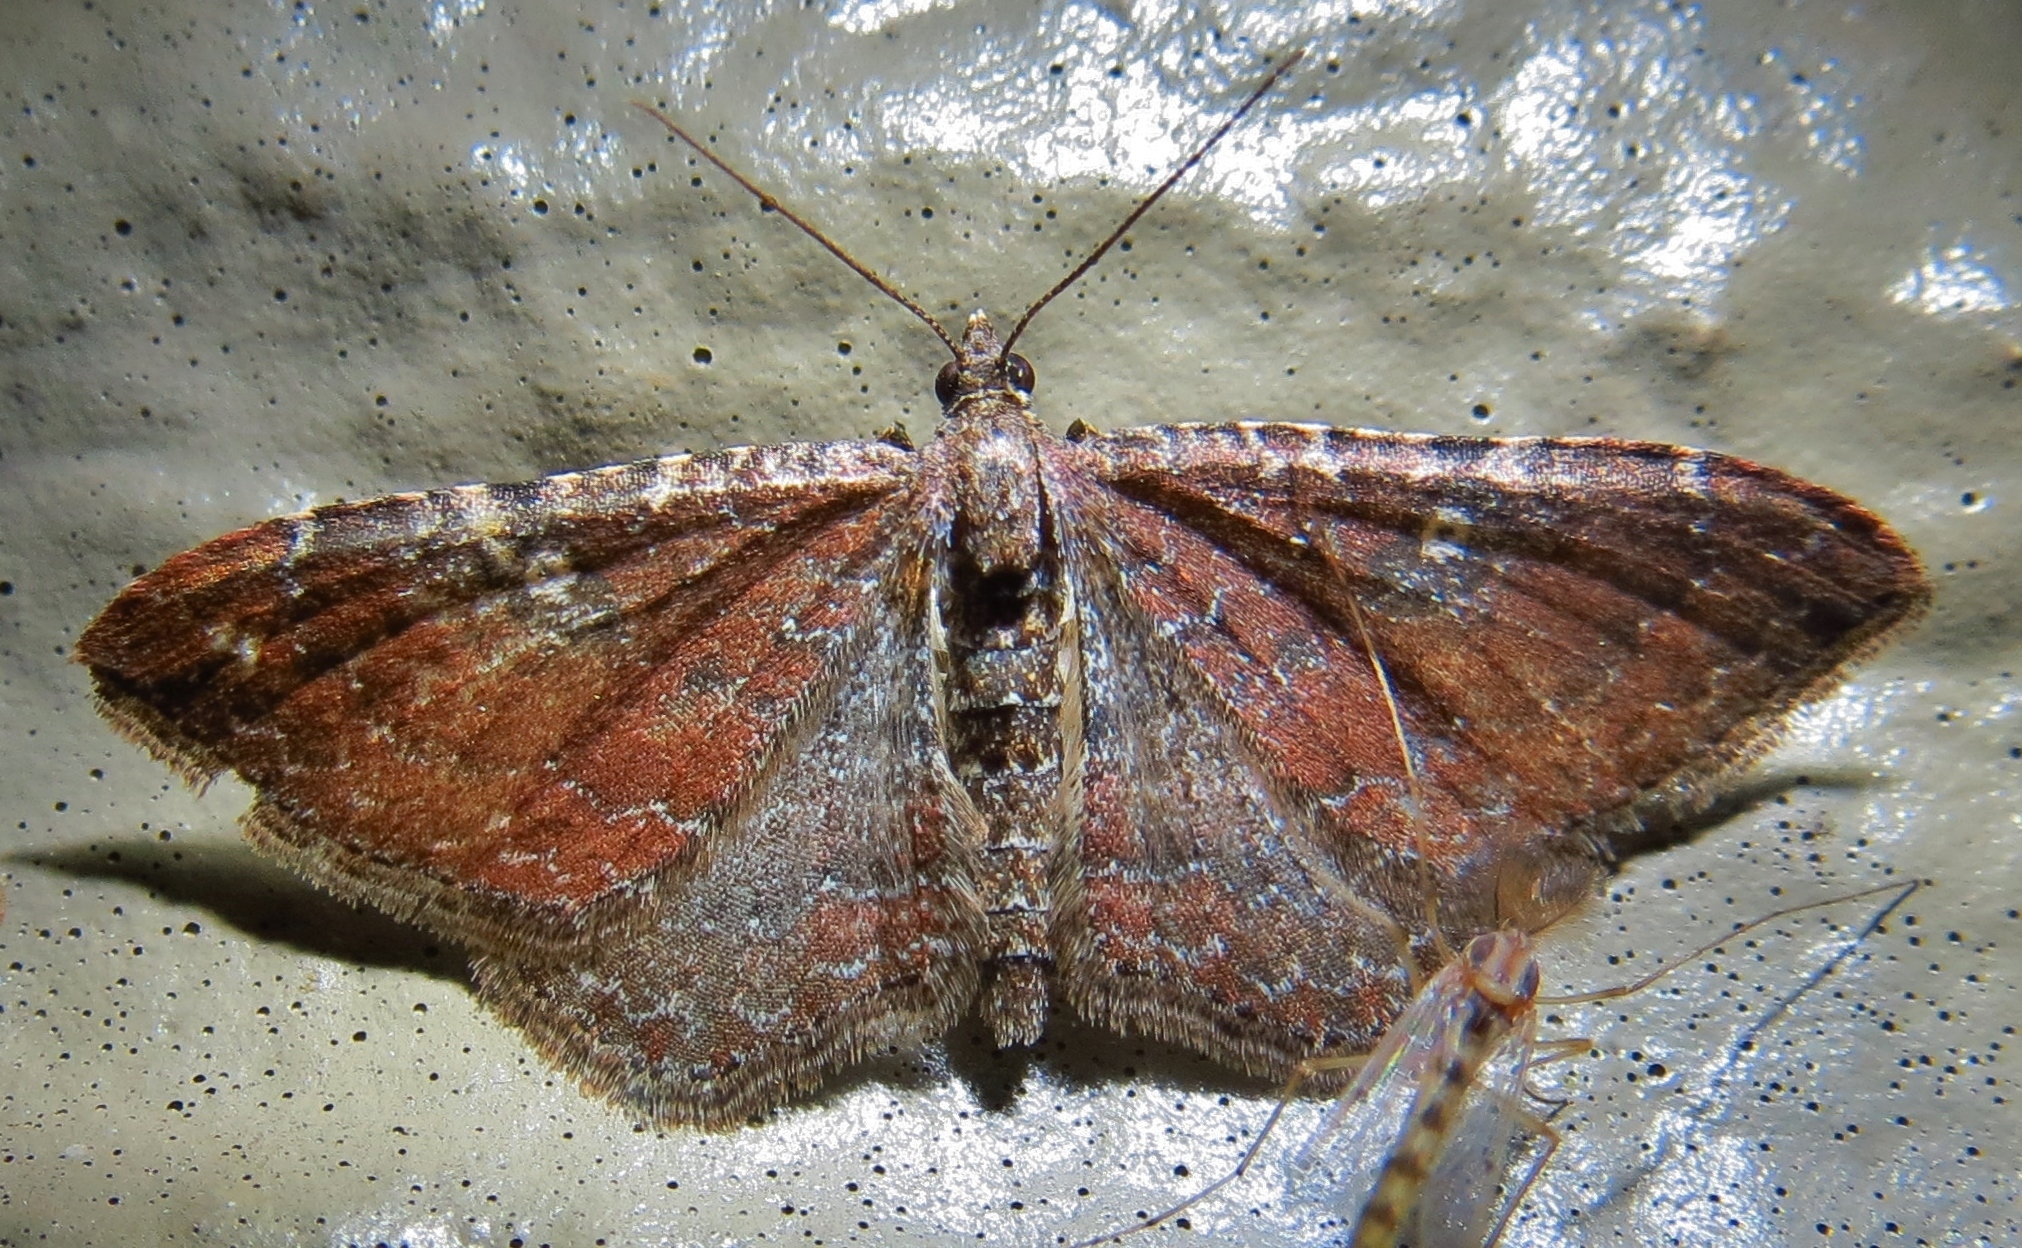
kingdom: Animalia
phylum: Arthropoda
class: Insecta
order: Lepidoptera
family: Geometridae
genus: Orthonama
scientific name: Orthonama obstipata
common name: The gem
